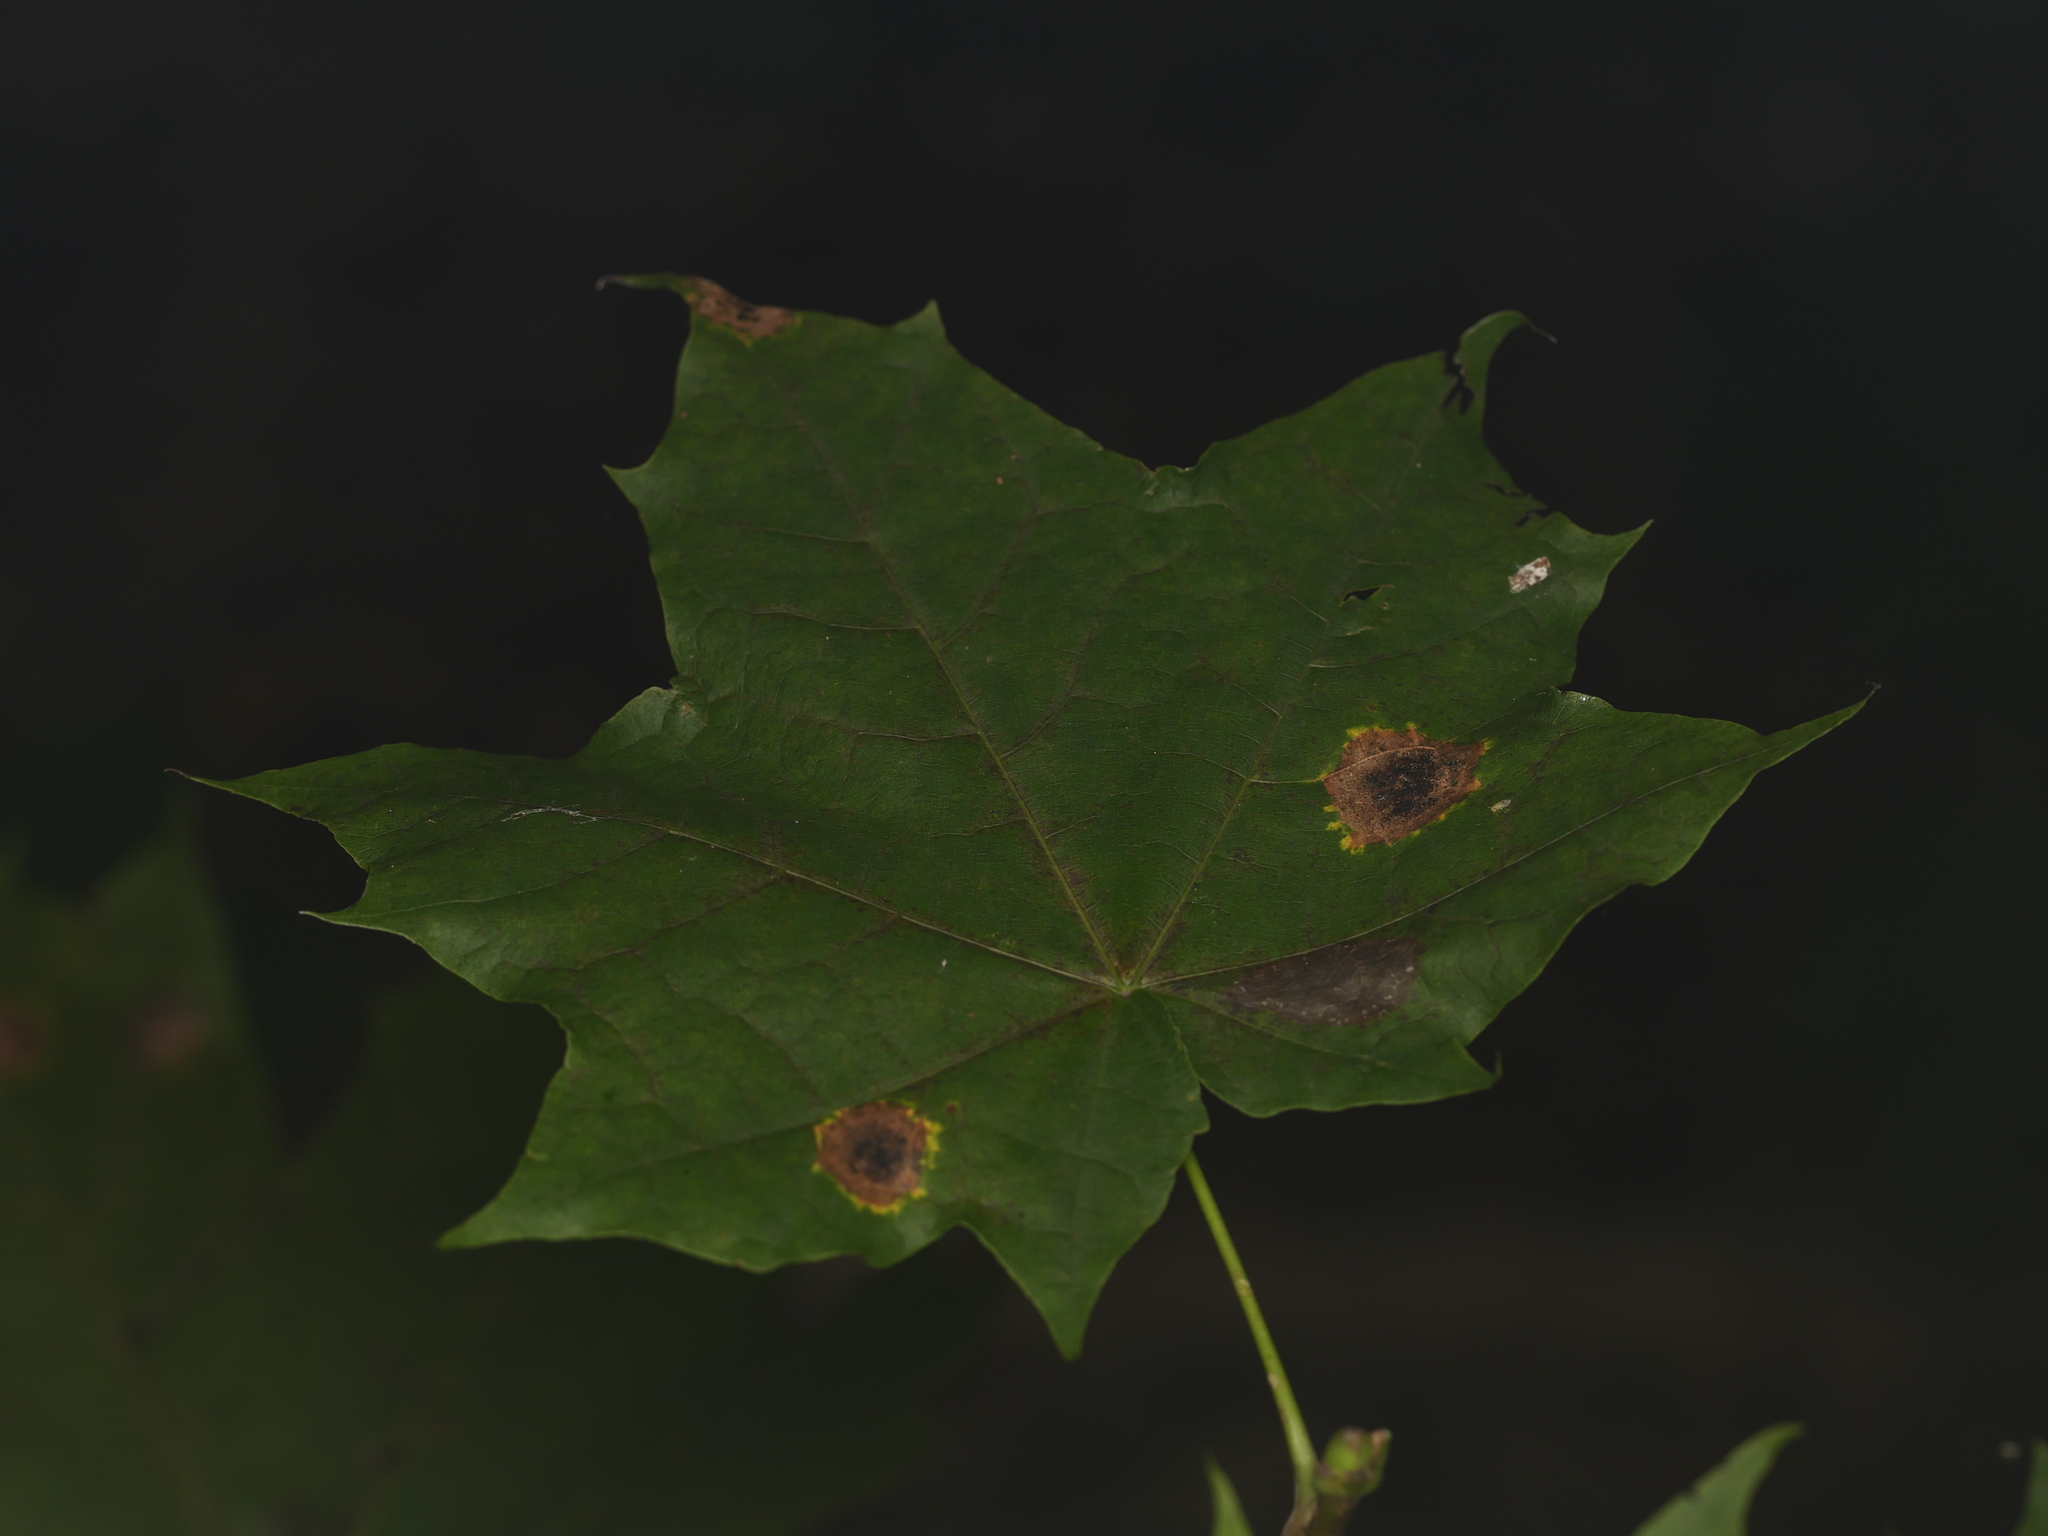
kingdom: Plantae
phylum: Tracheophyta
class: Magnoliopsida
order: Sapindales
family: Sapindaceae
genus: Acer
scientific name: Acer platanoides
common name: Norway maple
